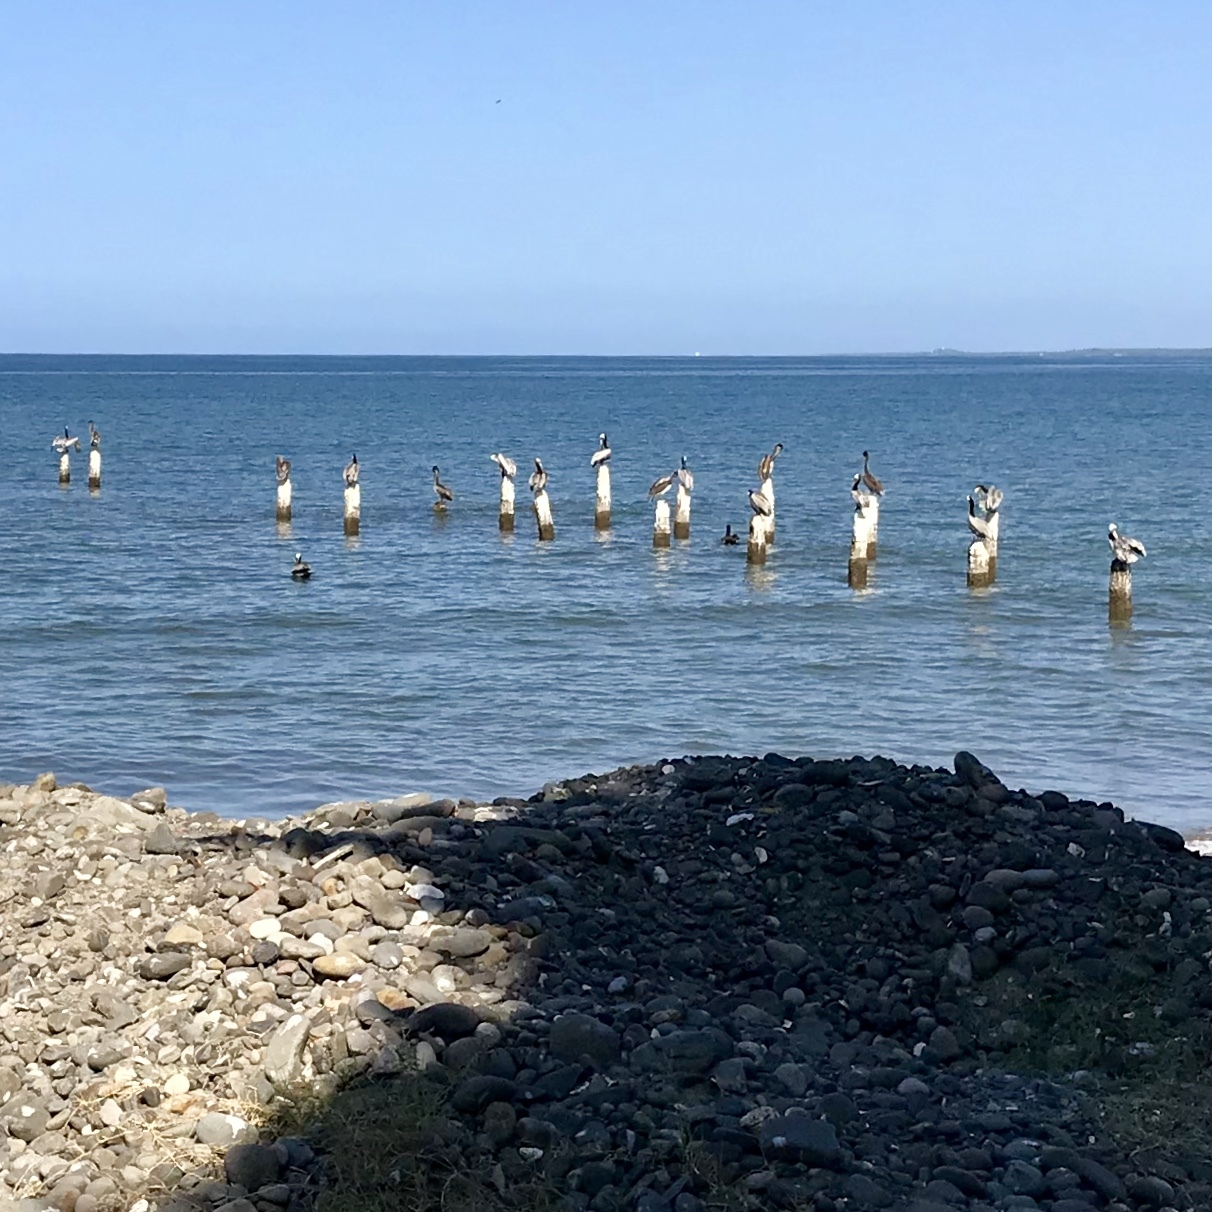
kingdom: Animalia
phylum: Chordata
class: Aves
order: Pelecaniformes
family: Pelecanidae
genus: Pelecanus
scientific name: Pelecanus occidentalis
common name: Brown pelican
